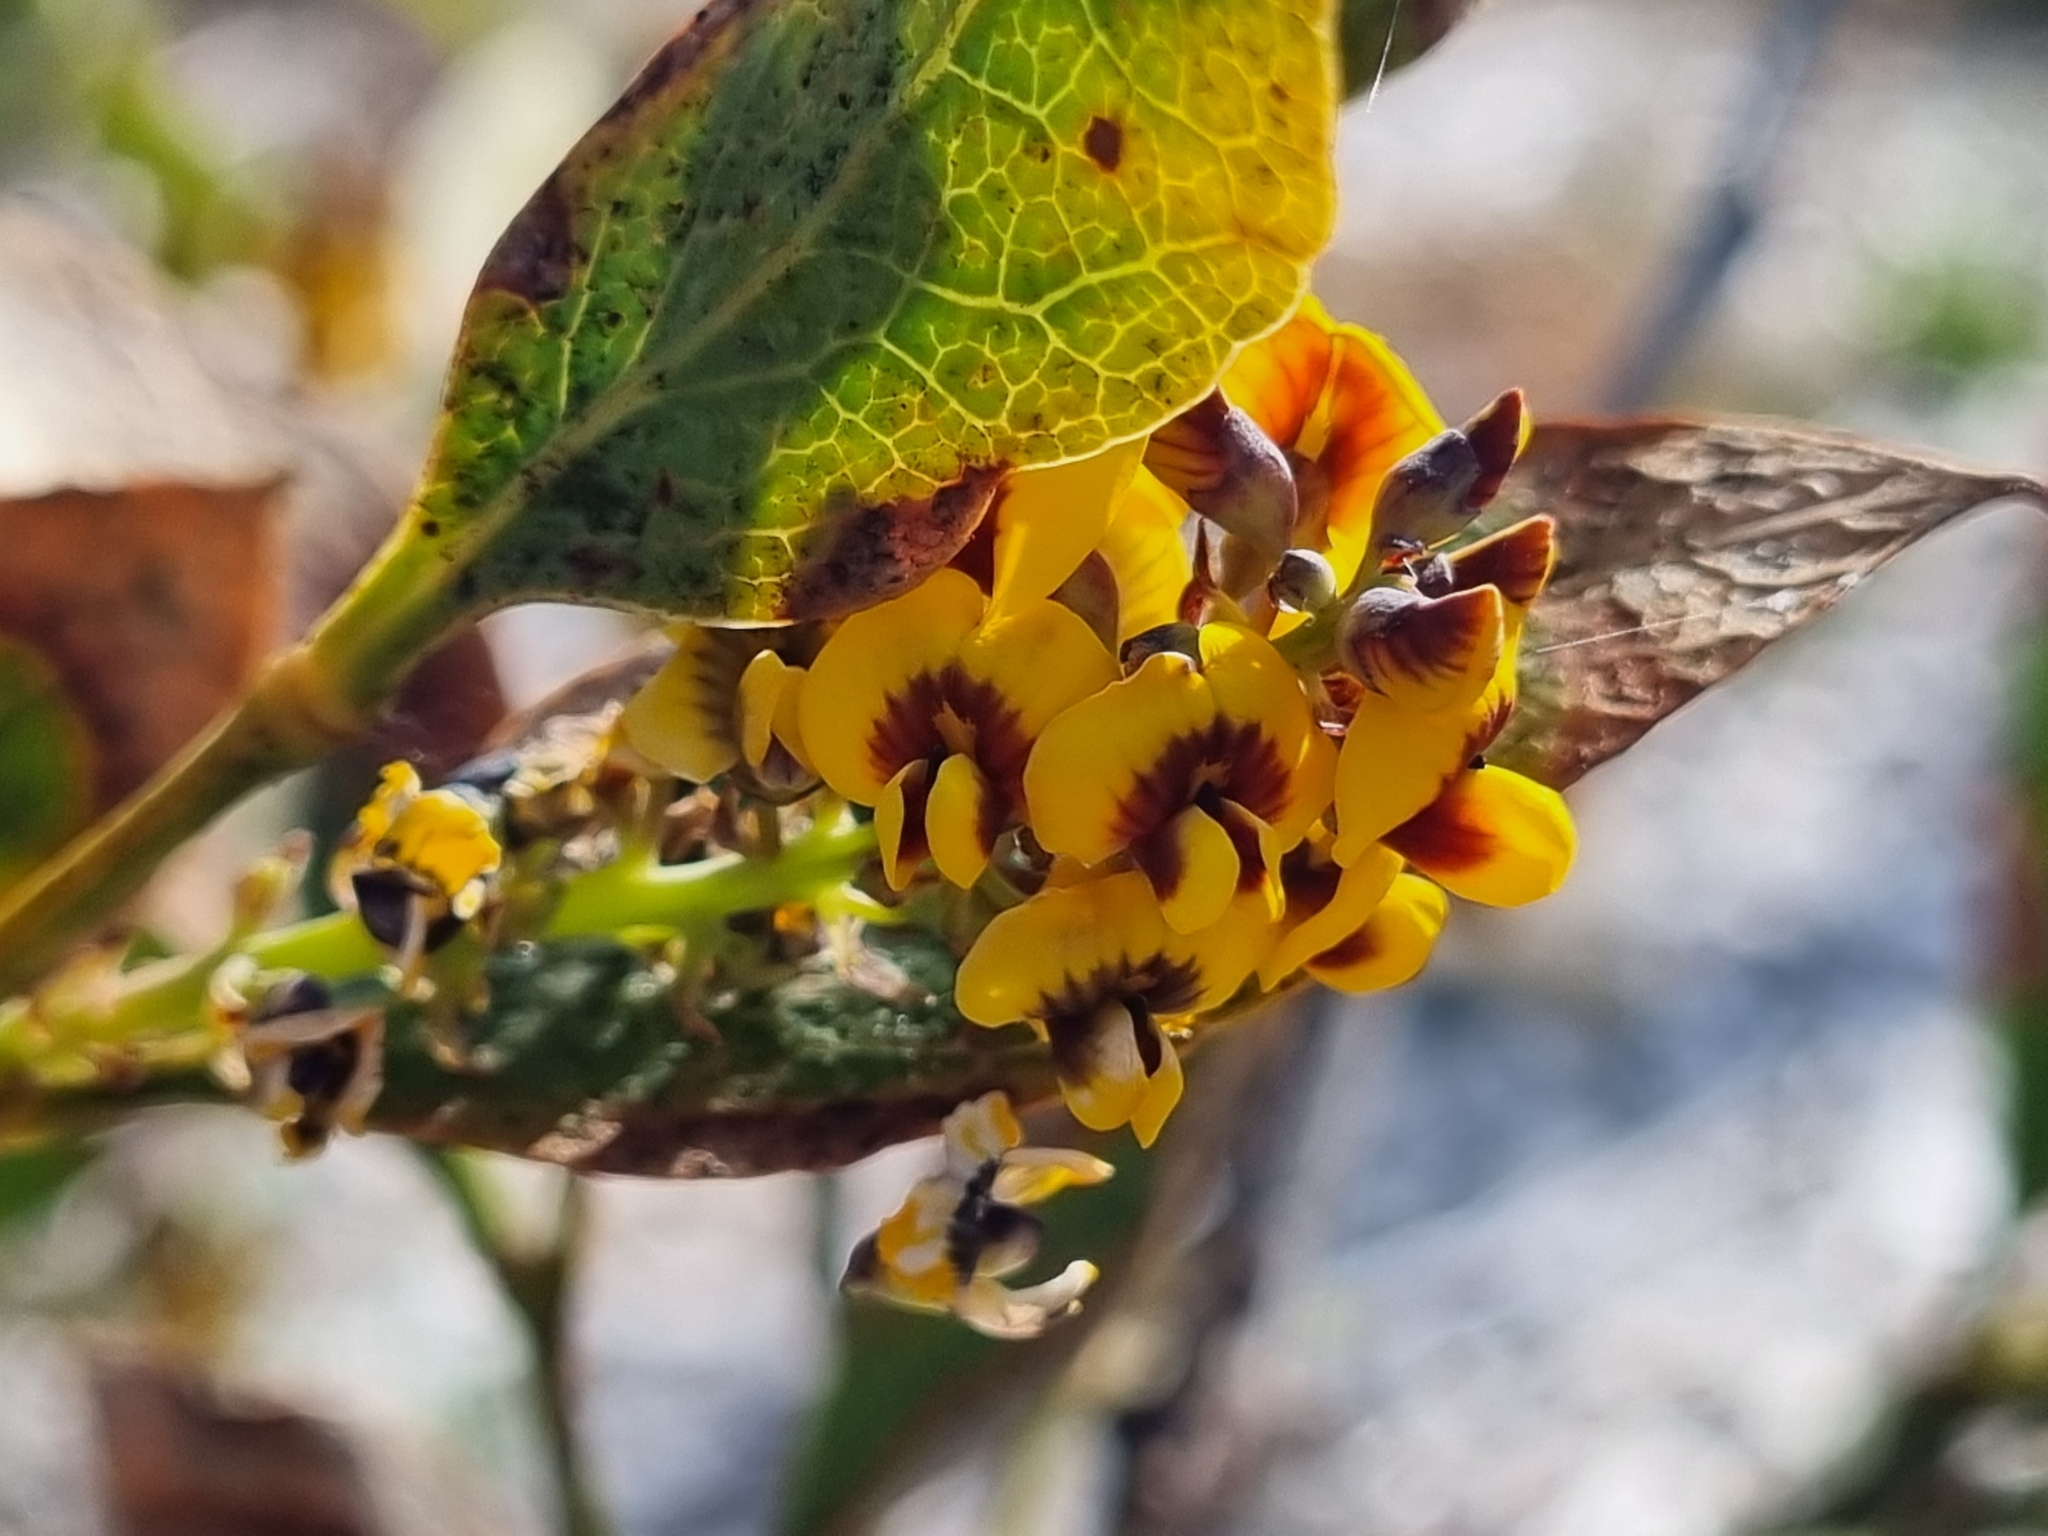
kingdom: Plantae
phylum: Tracheophyta
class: Magnoliopsida
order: Fabales
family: Fabaceae
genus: Daviesia
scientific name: Daviesia latifolia
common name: Hop bitter-pea
